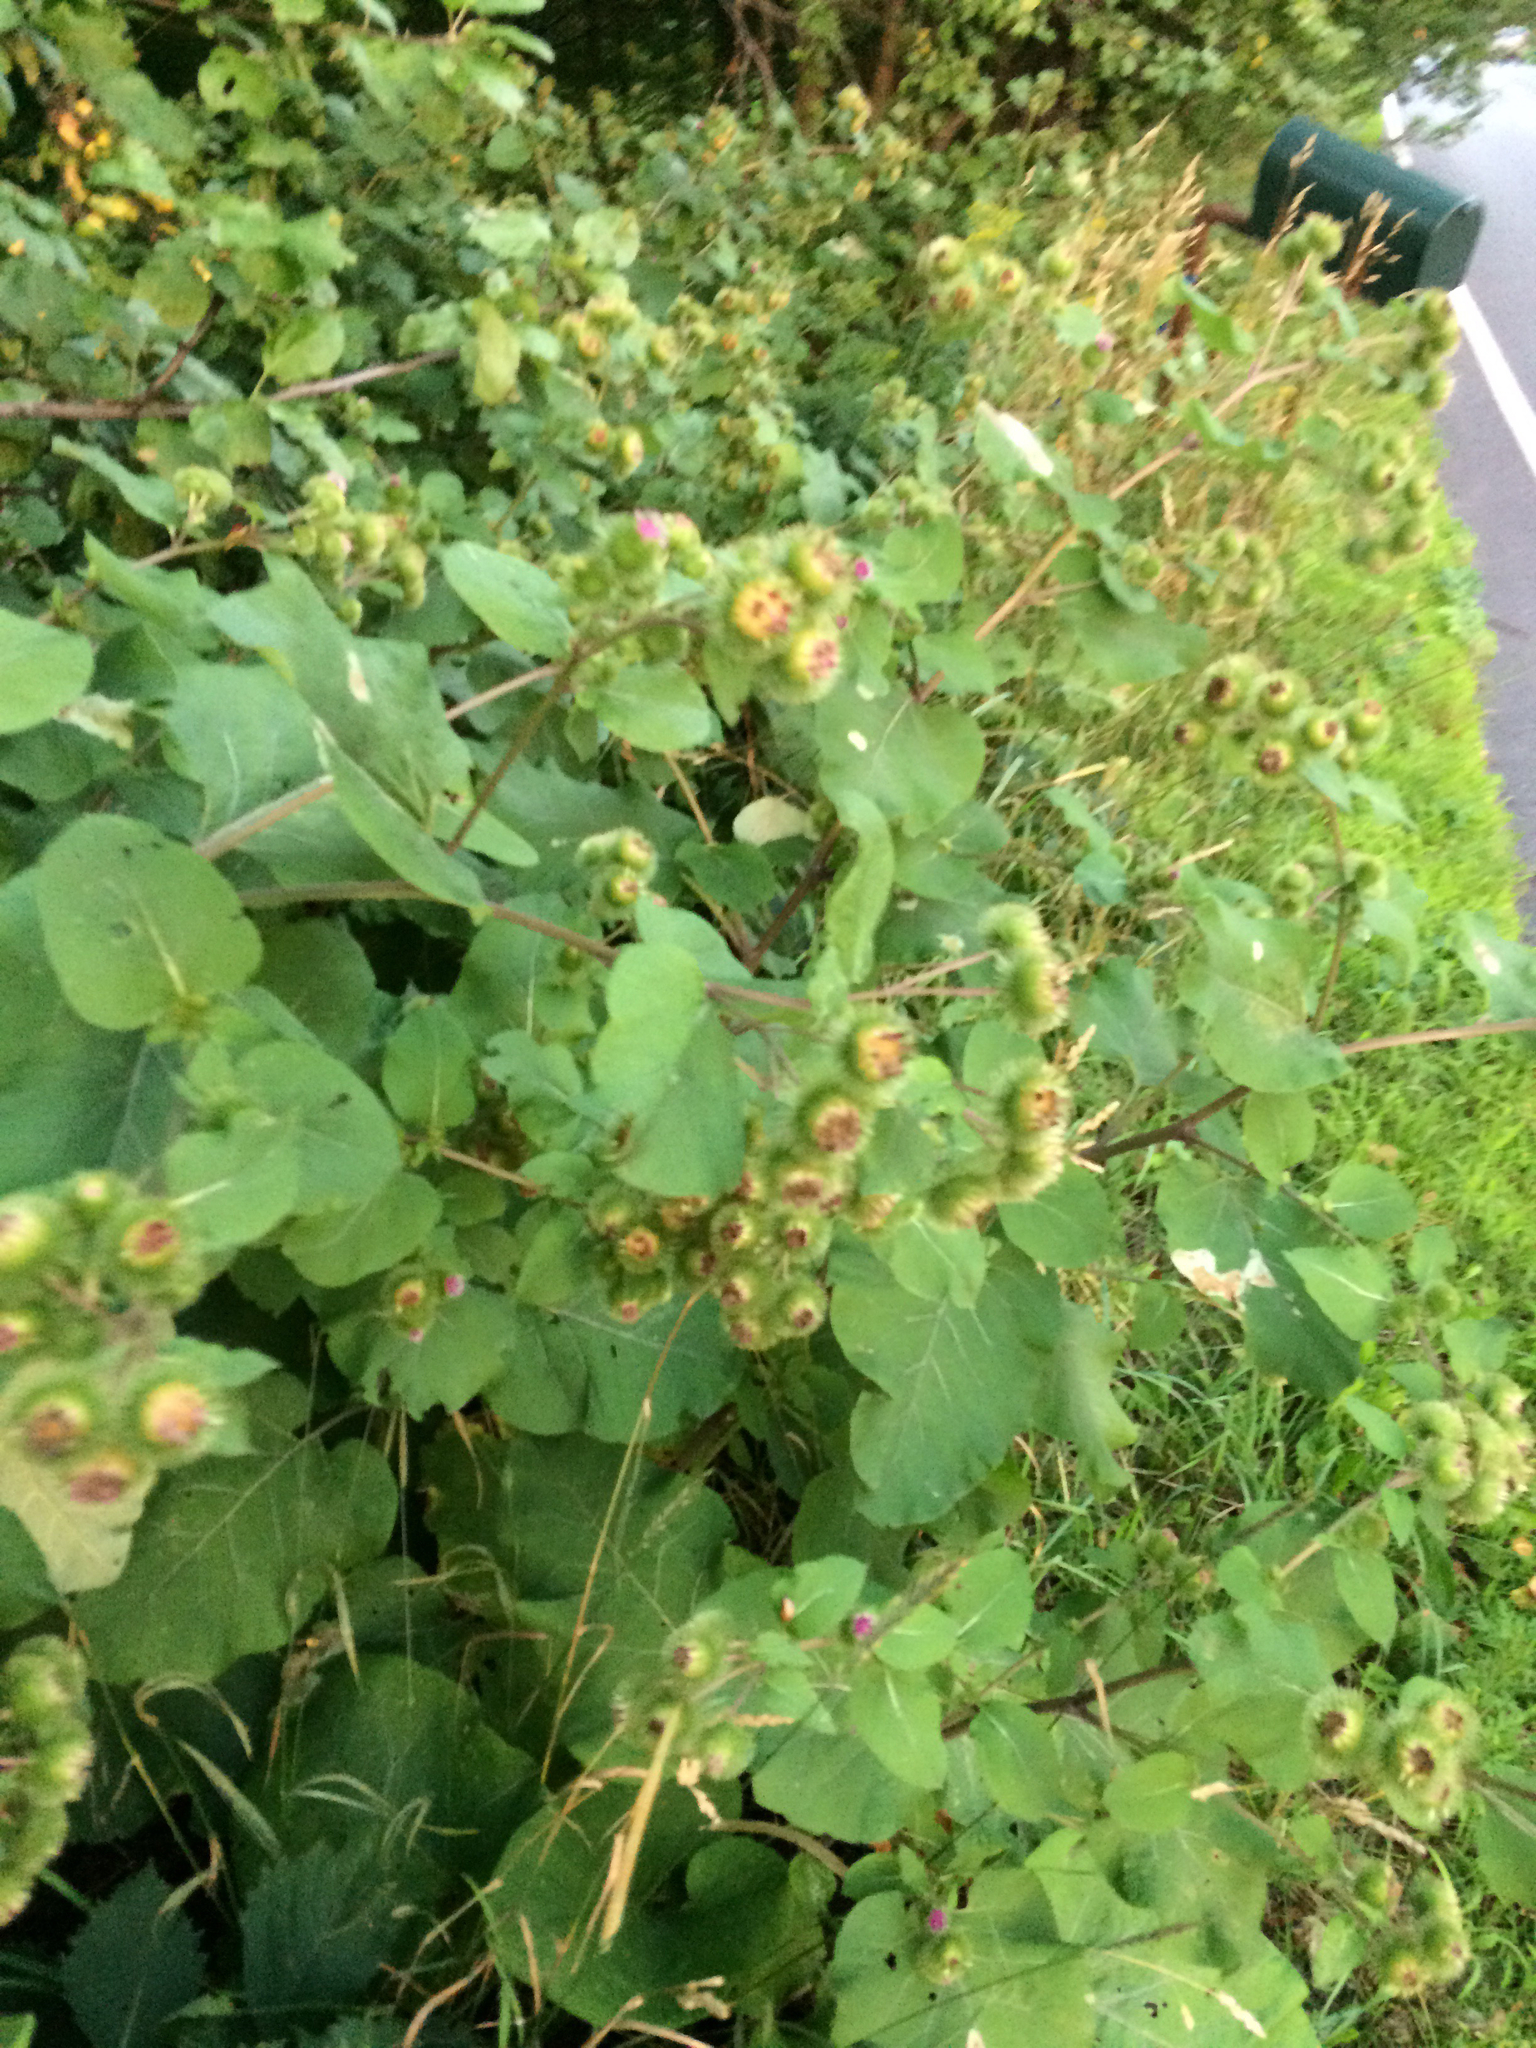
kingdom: Plantae
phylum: Tracheophyta
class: Magnoliopsida
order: Asterales
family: Asteraceae
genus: Arctium
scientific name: Arctium lappa
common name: Greater burdock
